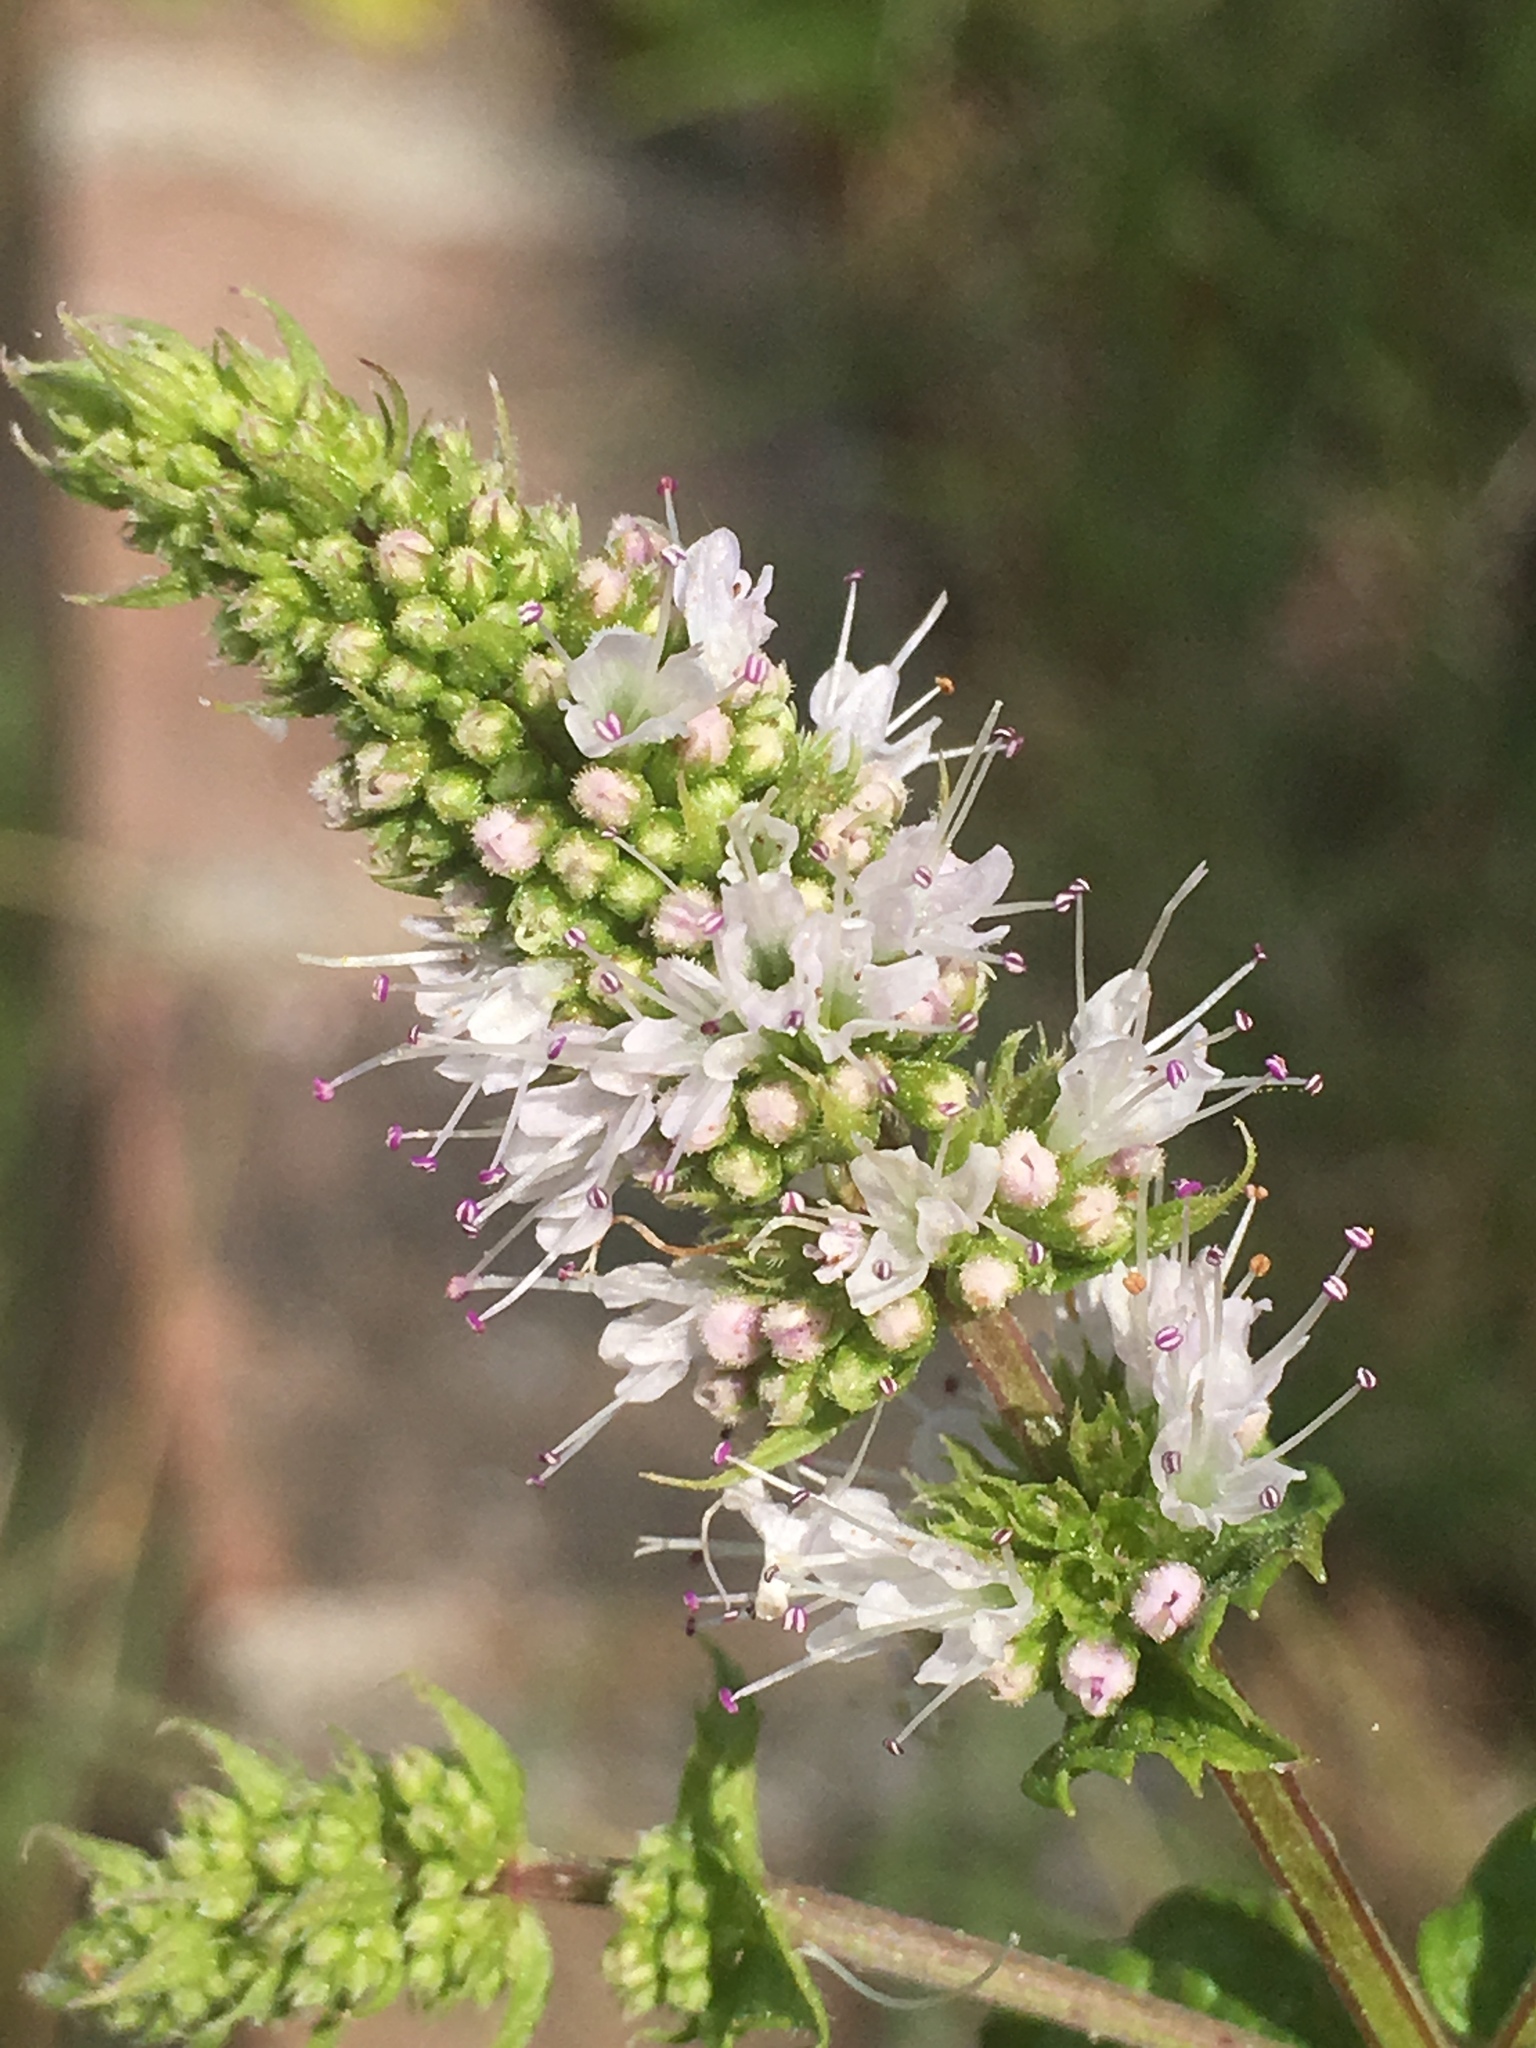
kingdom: Plantae
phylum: Tracheophyta
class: Magnoliopsida
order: Lamiales
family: Lamiaceae
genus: Mentha
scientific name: Mentha spicata
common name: Spearmint
